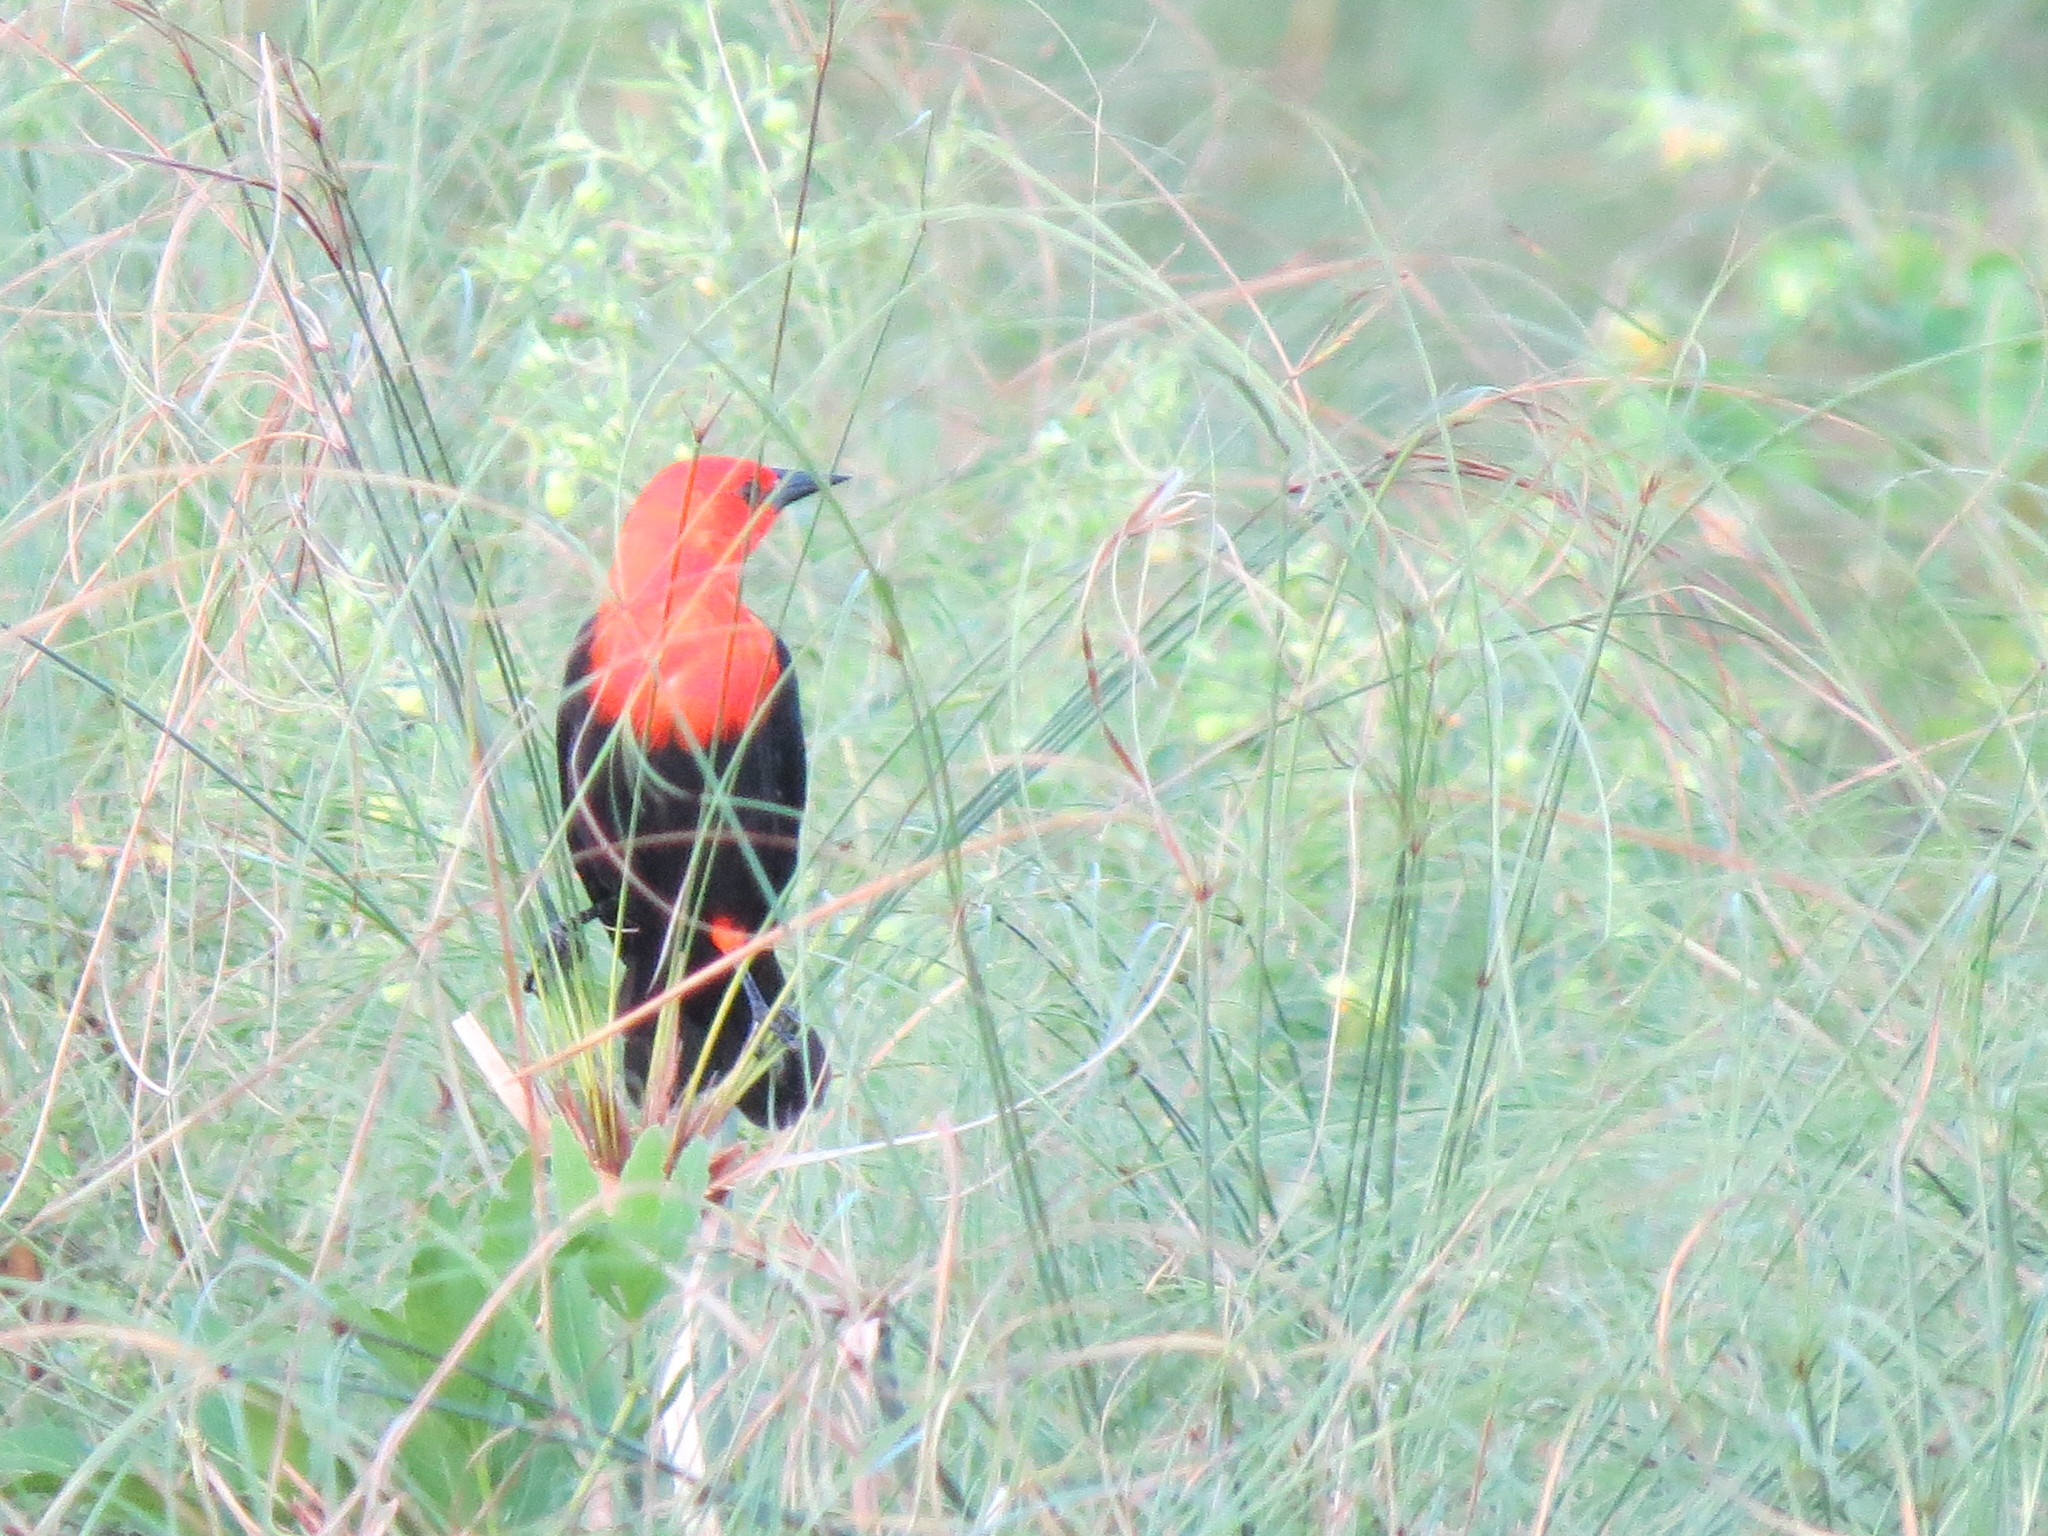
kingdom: Animalia
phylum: Chordata
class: Aves
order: Passeriformes
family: Icteridae
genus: Amblyramphus
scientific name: Amblyramphus holosericeus
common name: Scarlet-headed blackbird
